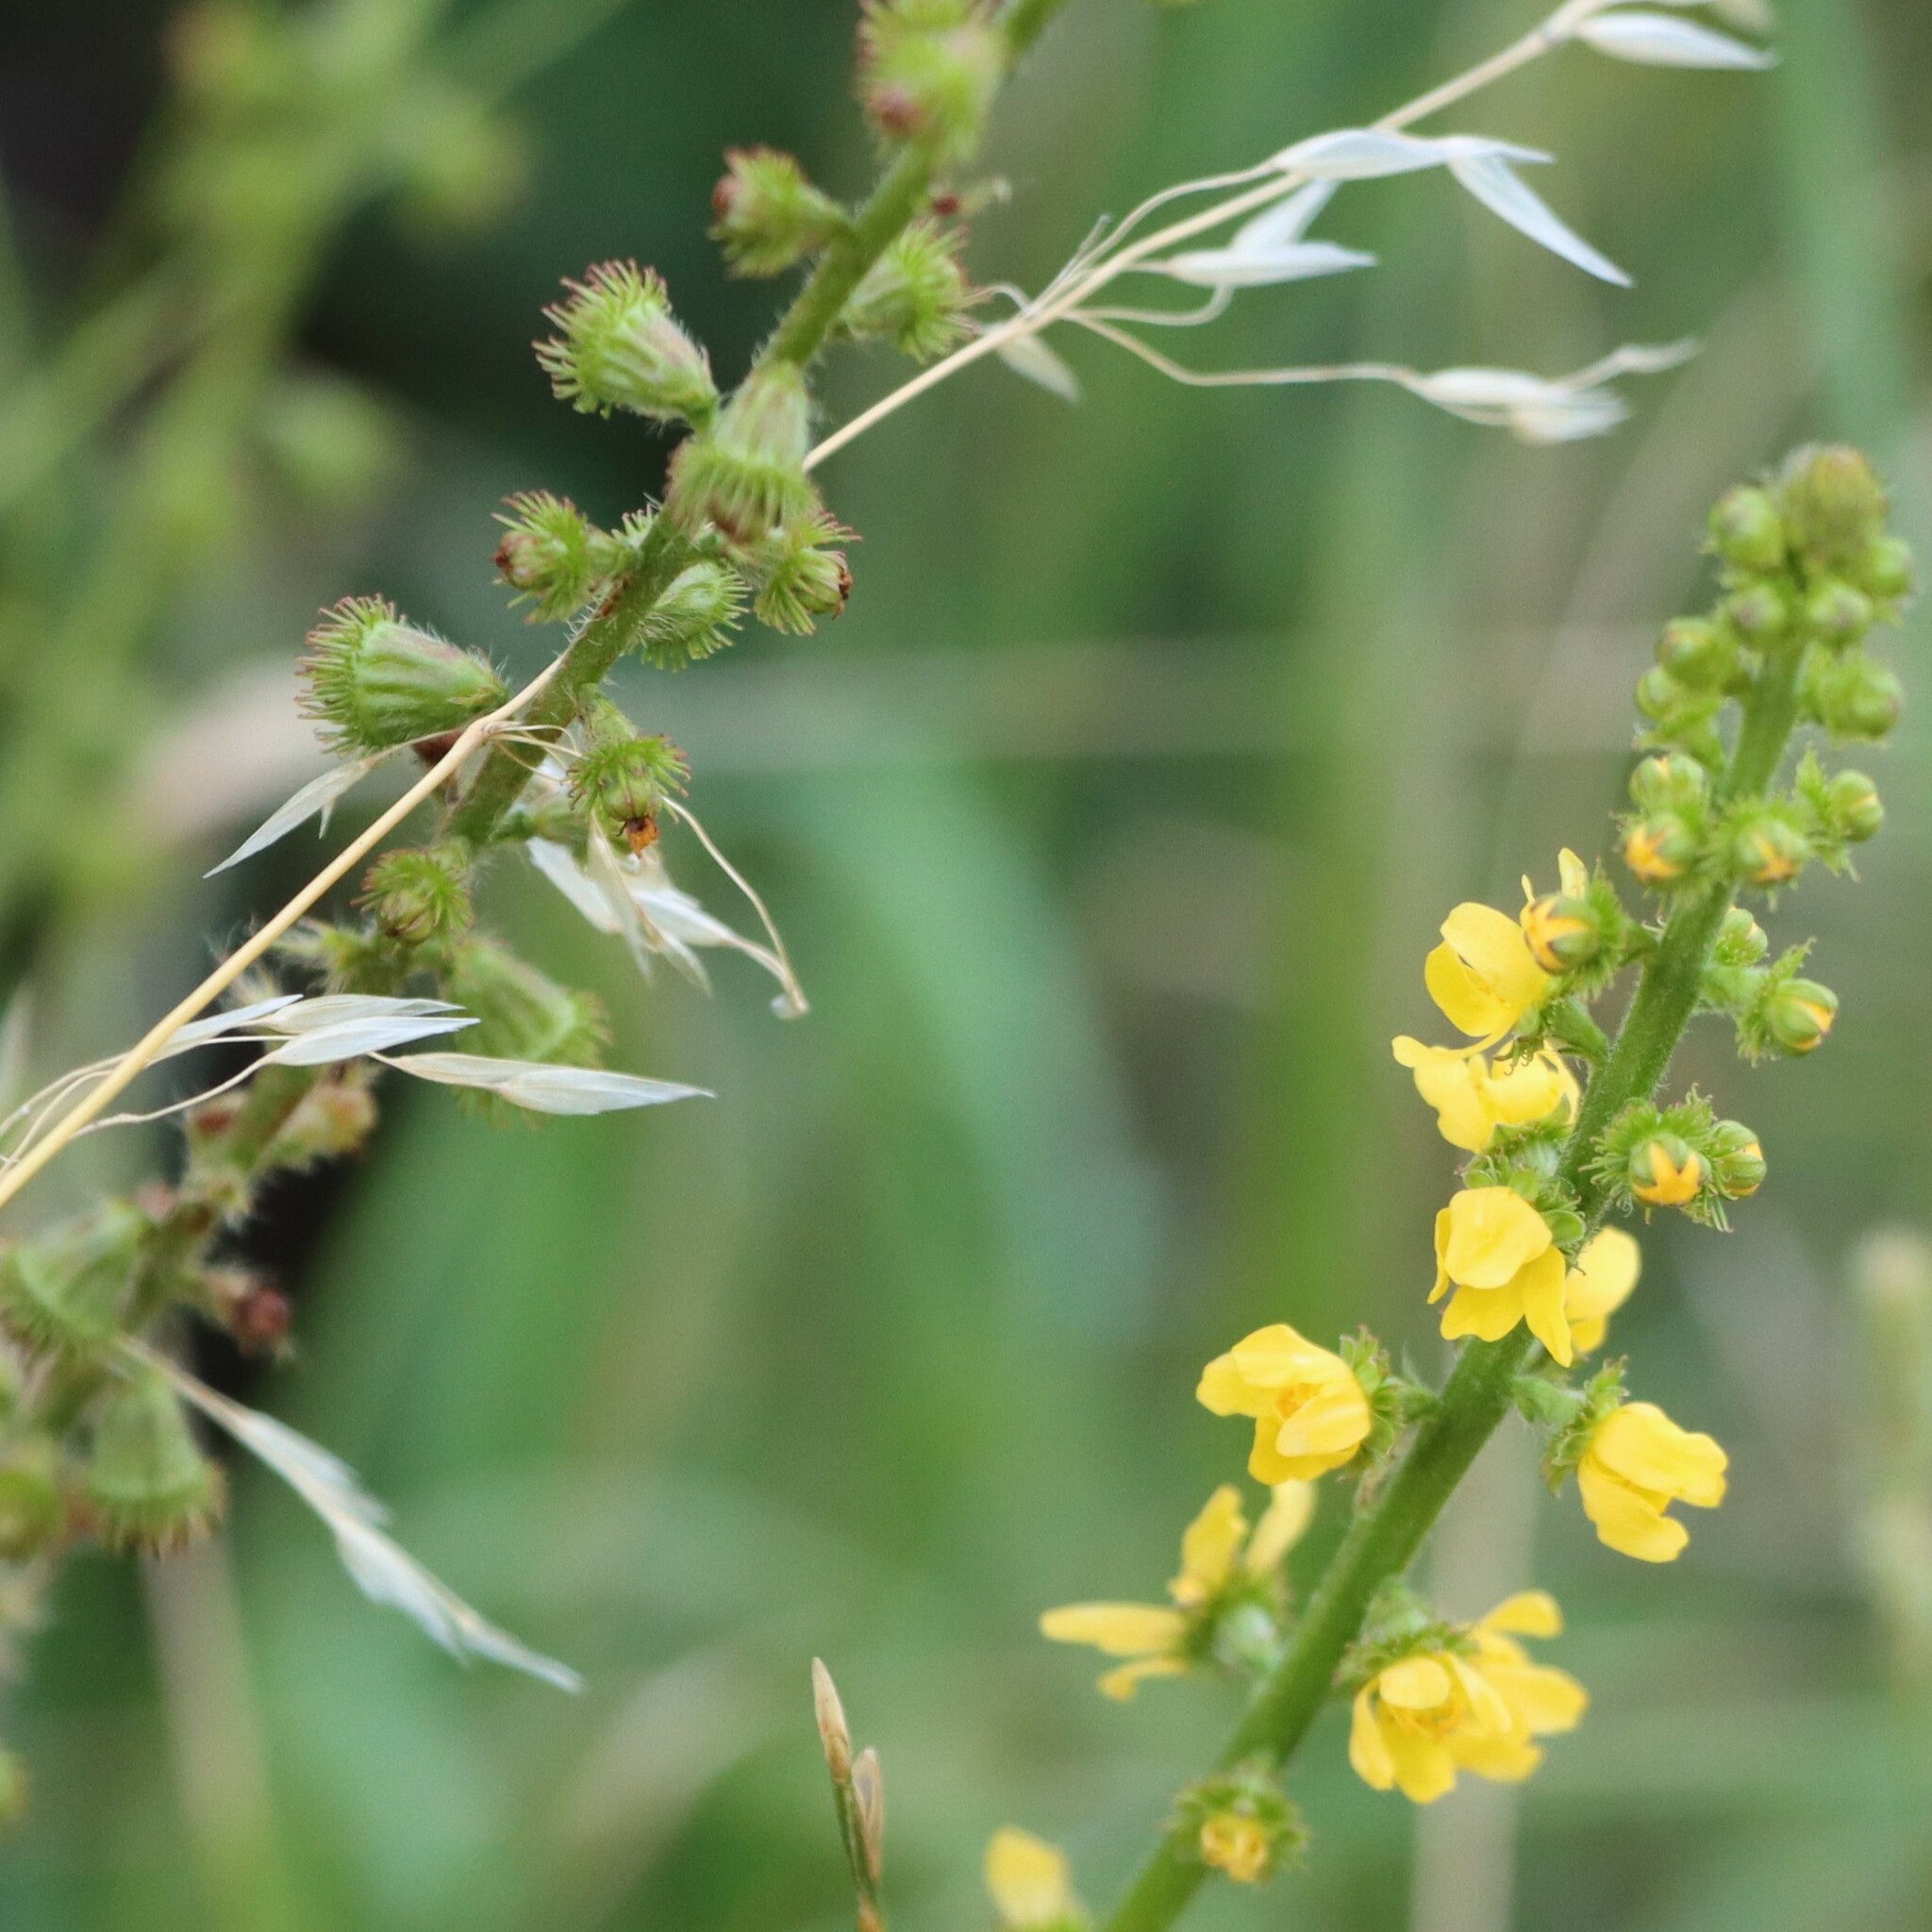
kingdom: Plantae
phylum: Tracheophyta
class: Magnoliopsida
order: Rosales
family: Rosaceae
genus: Agrimonia
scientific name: Agrimonia eupatoria
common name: Agrimony
